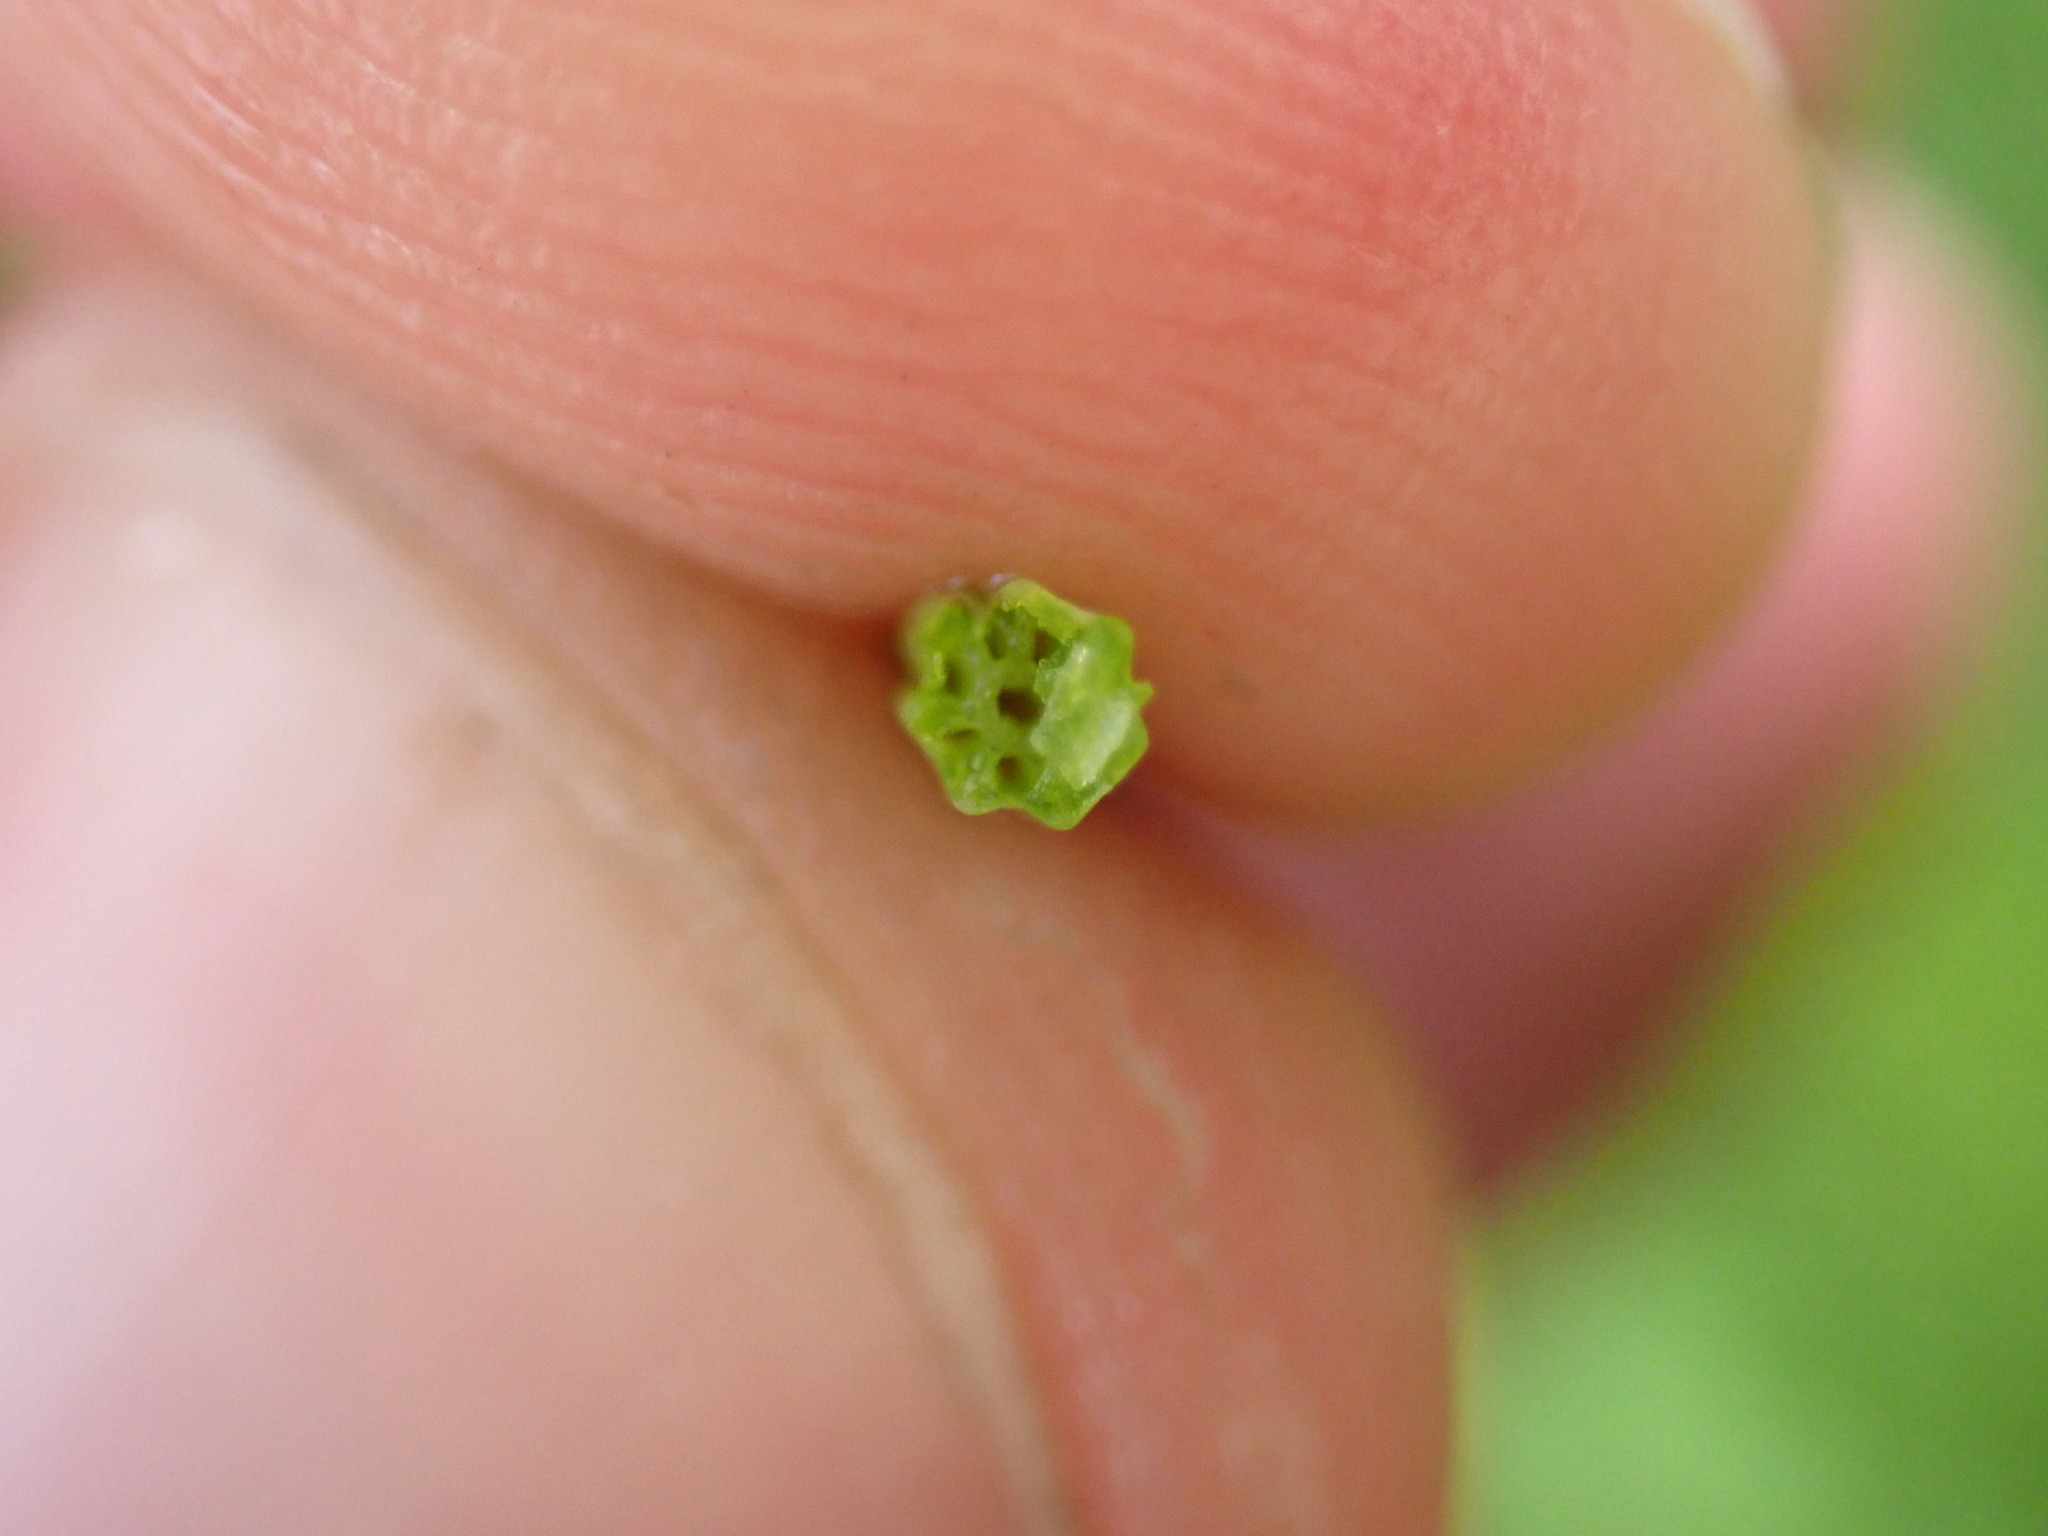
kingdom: Plantae
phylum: Tracheophyta
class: Polypodiopsida
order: Equisetales
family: Equisetaceae
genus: Equisetum
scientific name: Equisetum palustre
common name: Marsh horsetail
